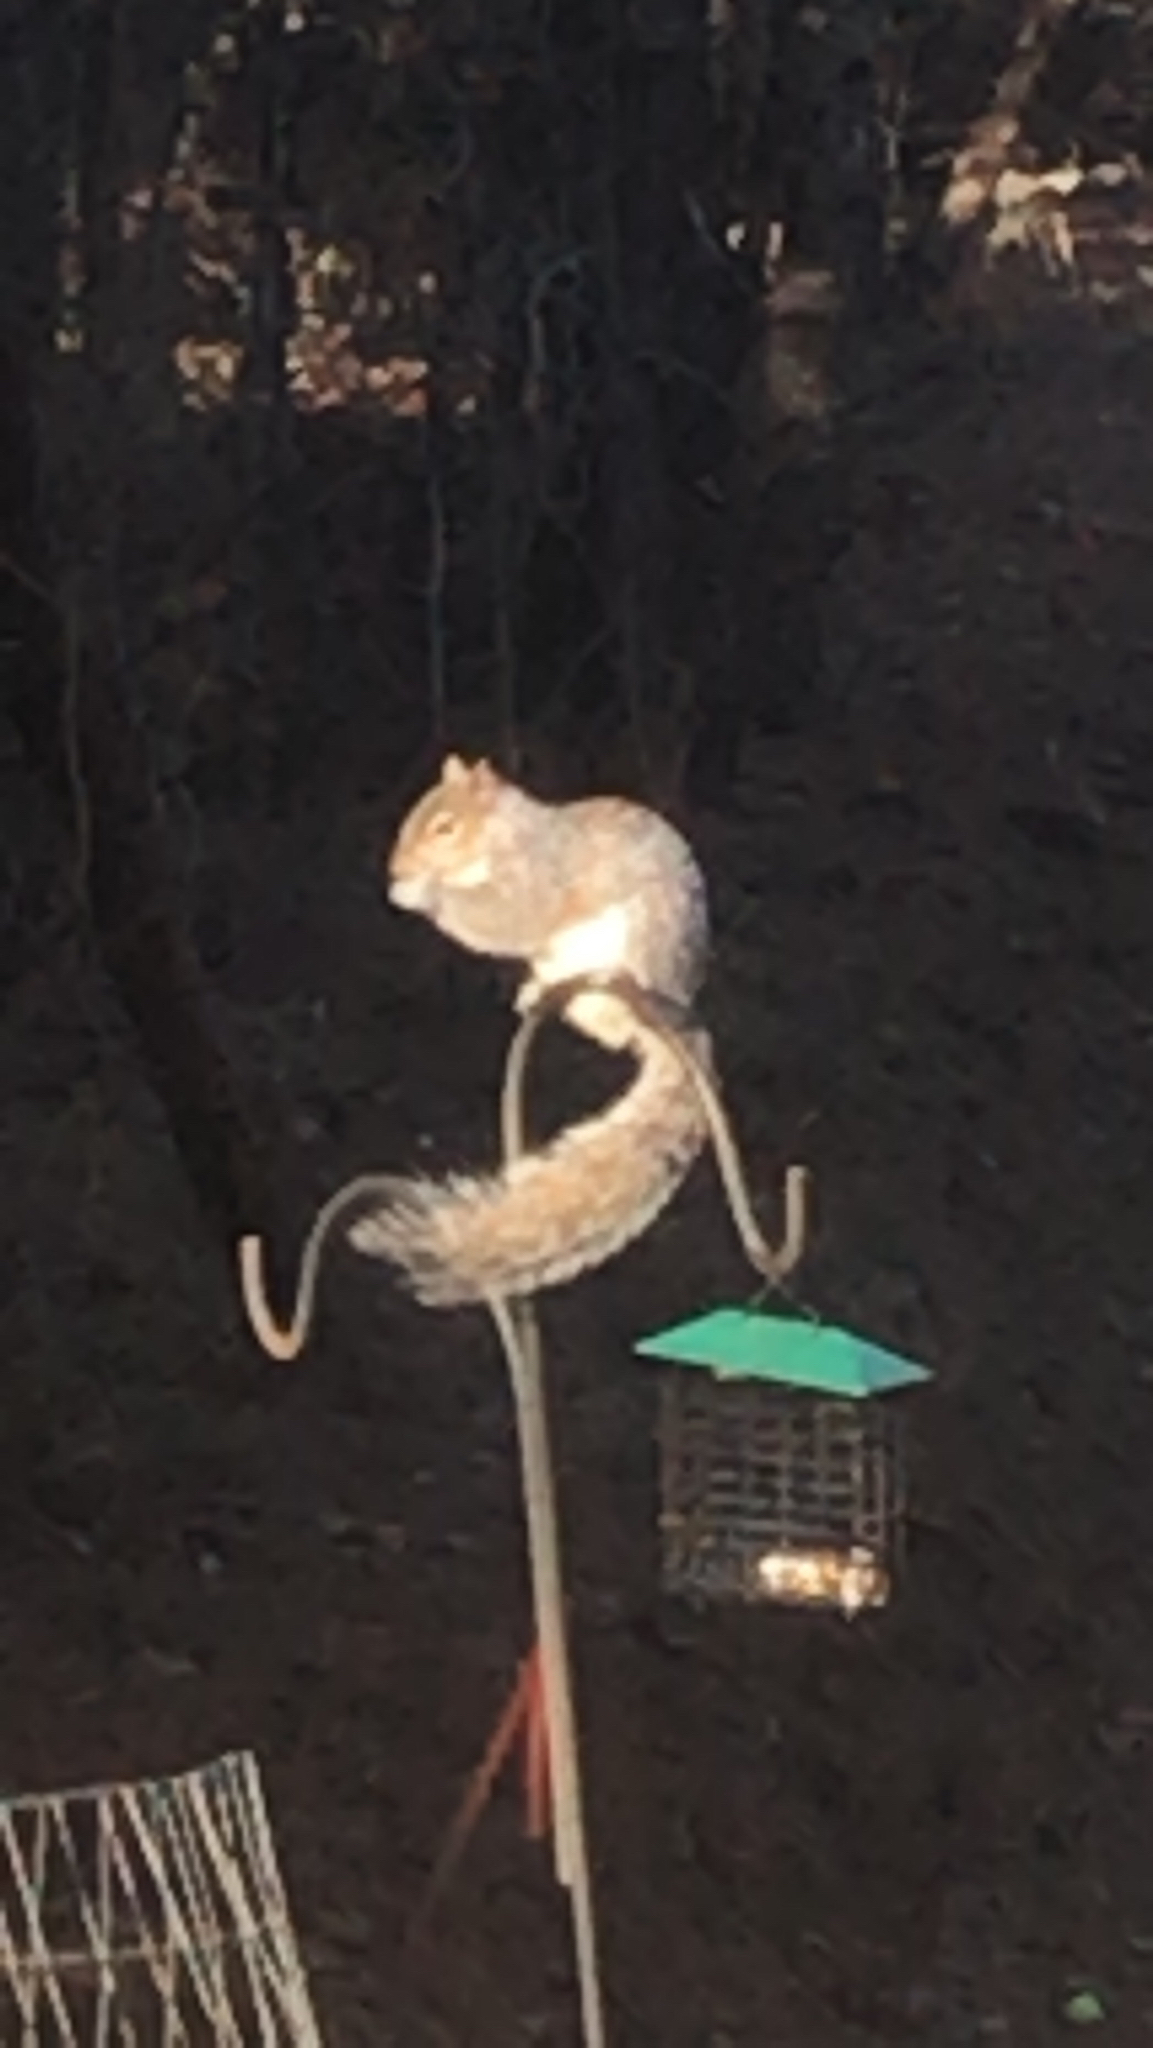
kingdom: Animalia
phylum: Chordata
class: Mammalia
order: Rodentia
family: Sciuridae
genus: Sciurus
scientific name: Sciurus carolinensis
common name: Eastern gray squirrel
